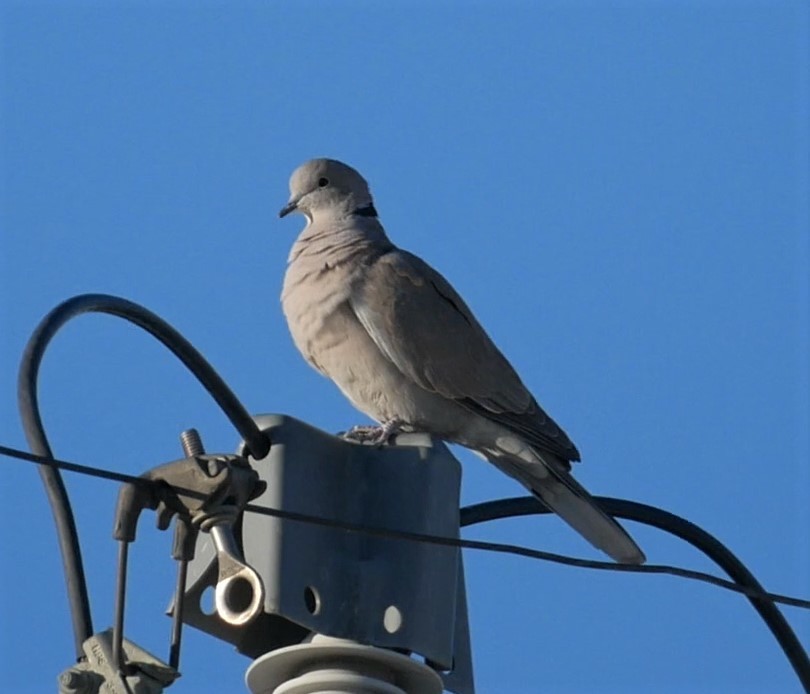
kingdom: Animalia
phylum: Chordata
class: Aves
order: Columbiformes
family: Columbidae
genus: Streptopelia
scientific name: Streptopelia decaocto
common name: Eurasian collared dove
